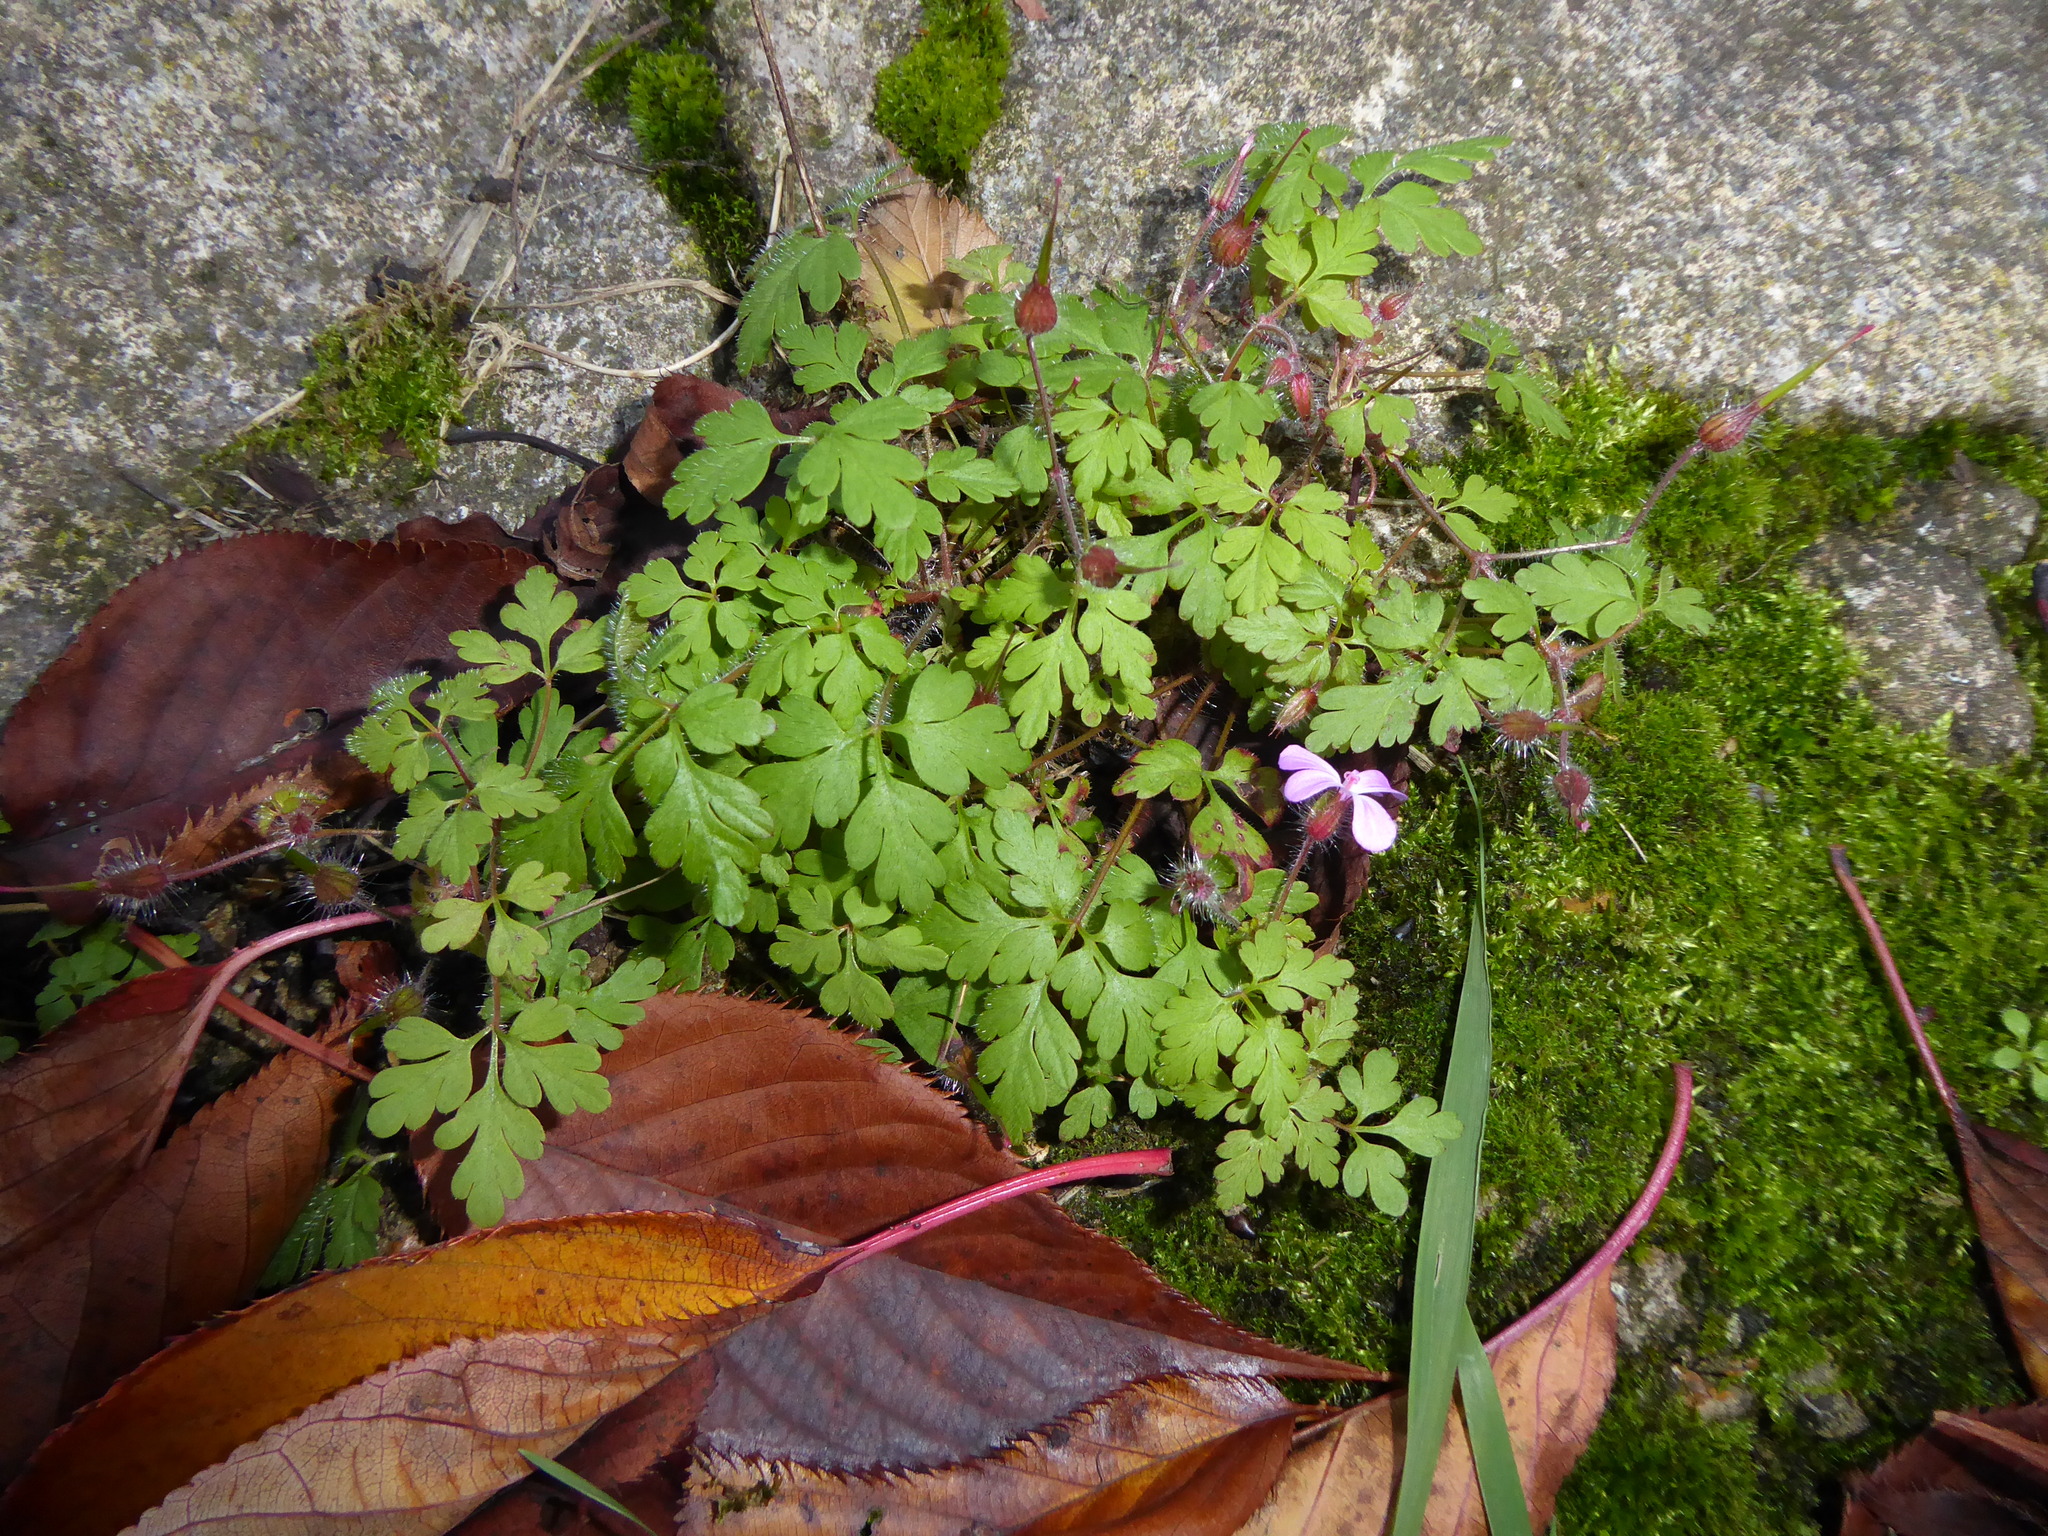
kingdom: Plantae
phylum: Tracheophyta
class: Magnoliopsida
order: Geraniales
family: Geraniaceae
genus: Geranium
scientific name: Geranium robertianum
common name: Herb-robert
